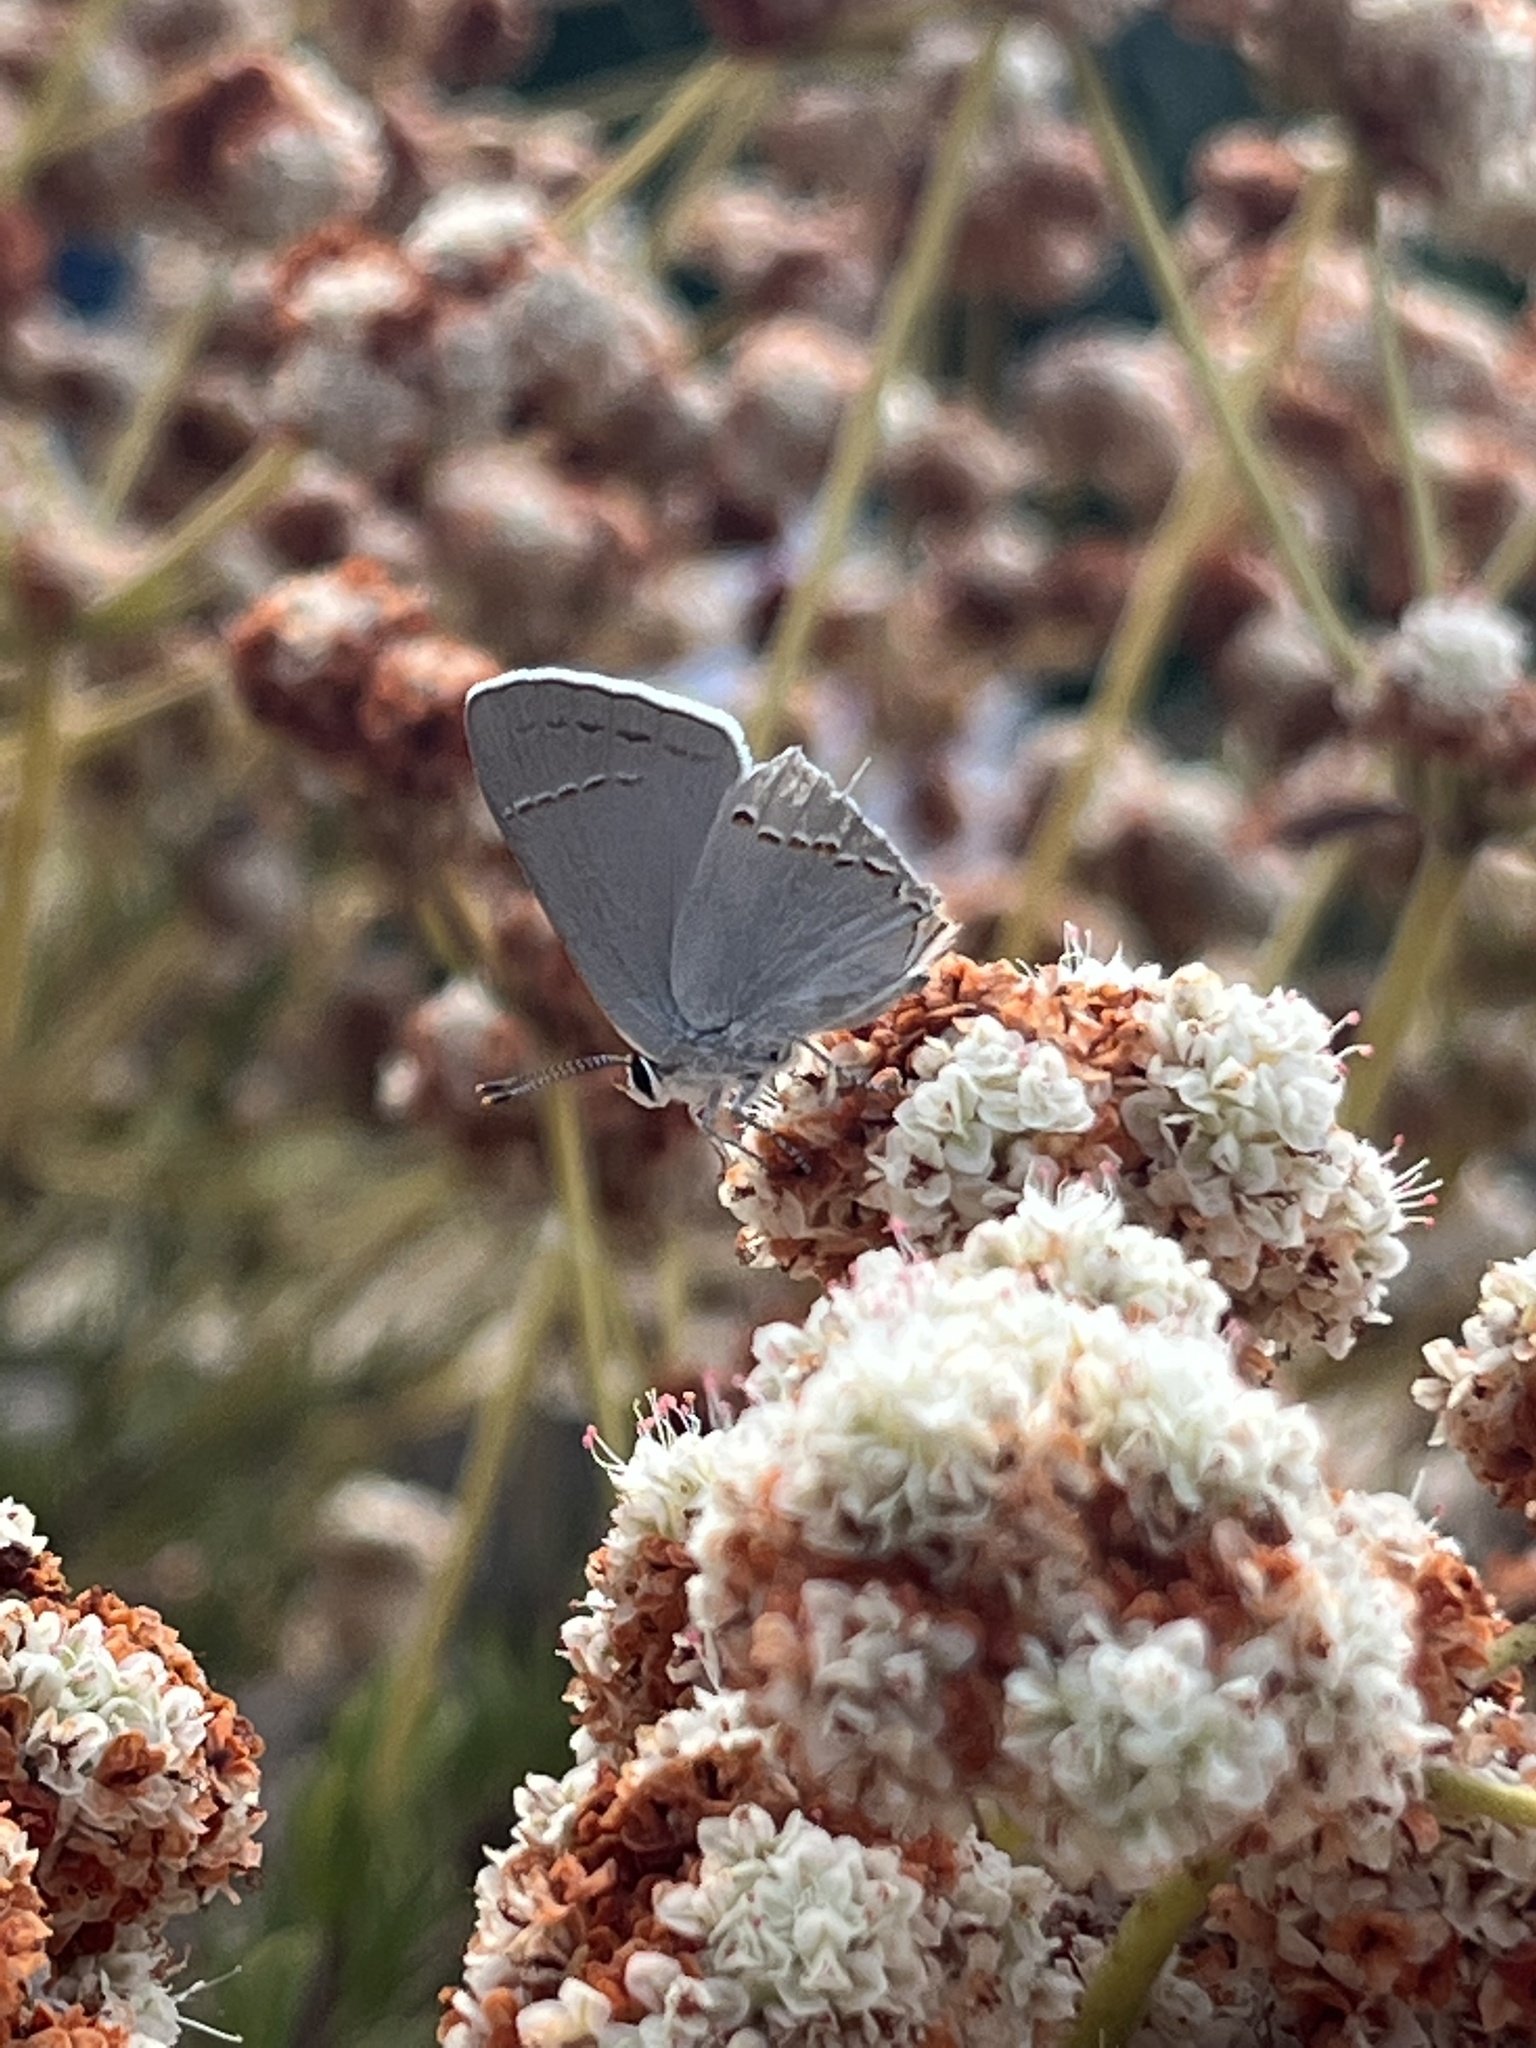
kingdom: Animalia
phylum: Arthropoda
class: Insecta
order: Lepidoptera
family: Lycaenidae
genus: Strymon
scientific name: Strymon melinus
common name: Gray hairstreak
